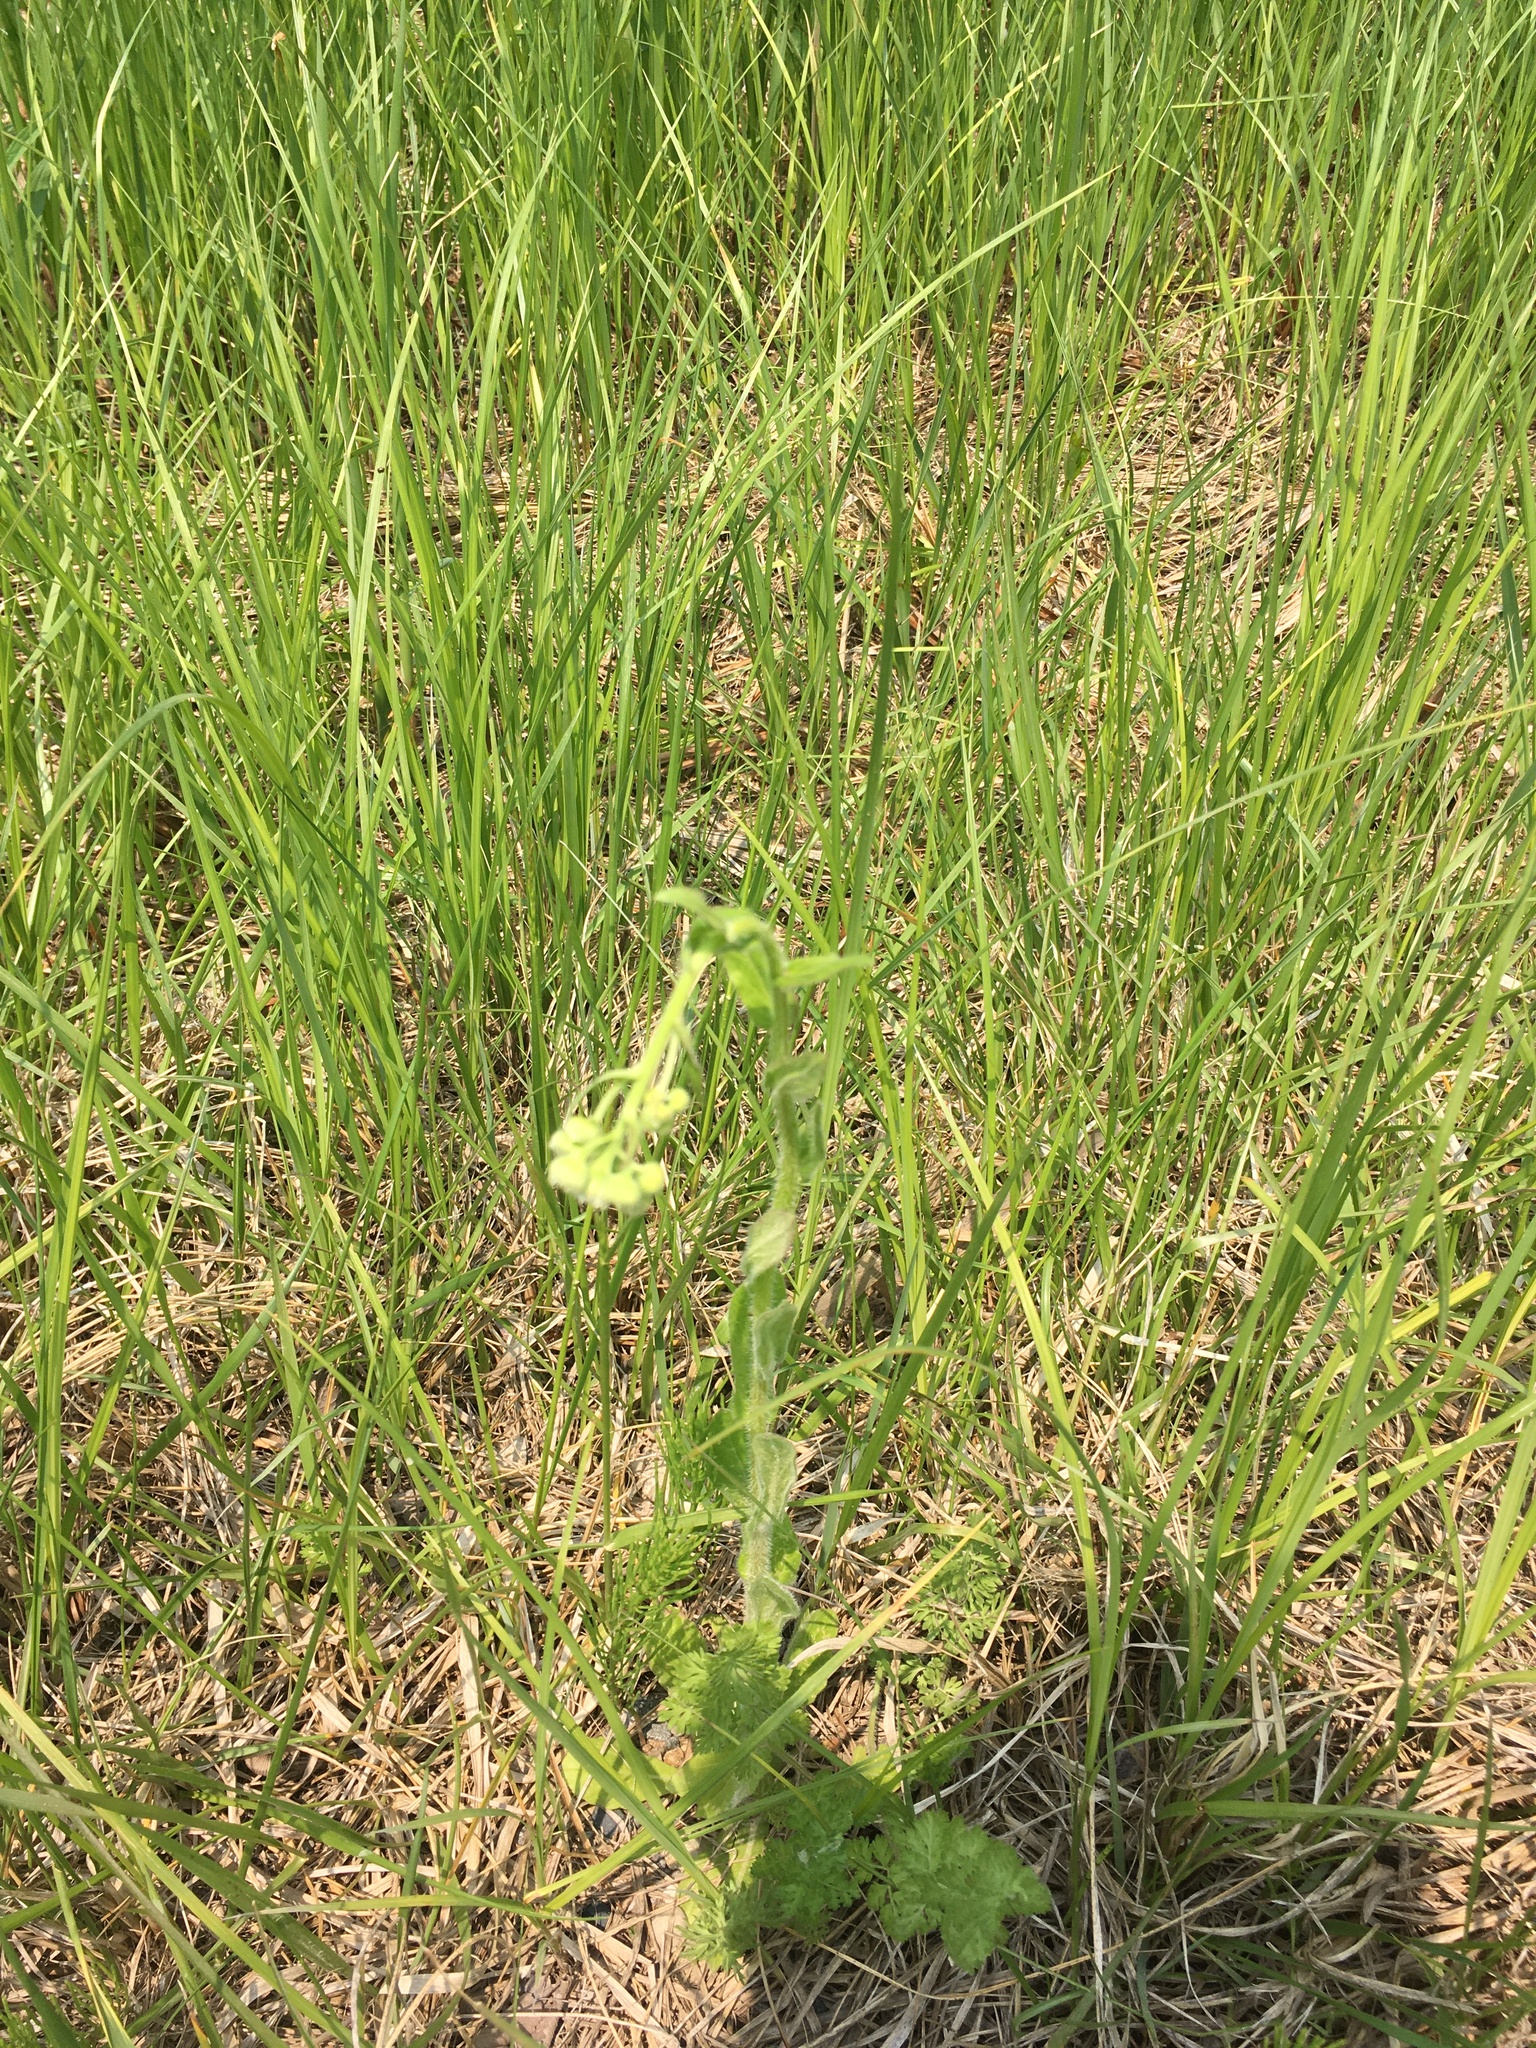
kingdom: Plantae
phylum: Tracheophyta
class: Magnoliopsida
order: Asterales
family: Asteraceae
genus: Erigeron
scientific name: Erigeron philadelphicus
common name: Robin's-plantain
